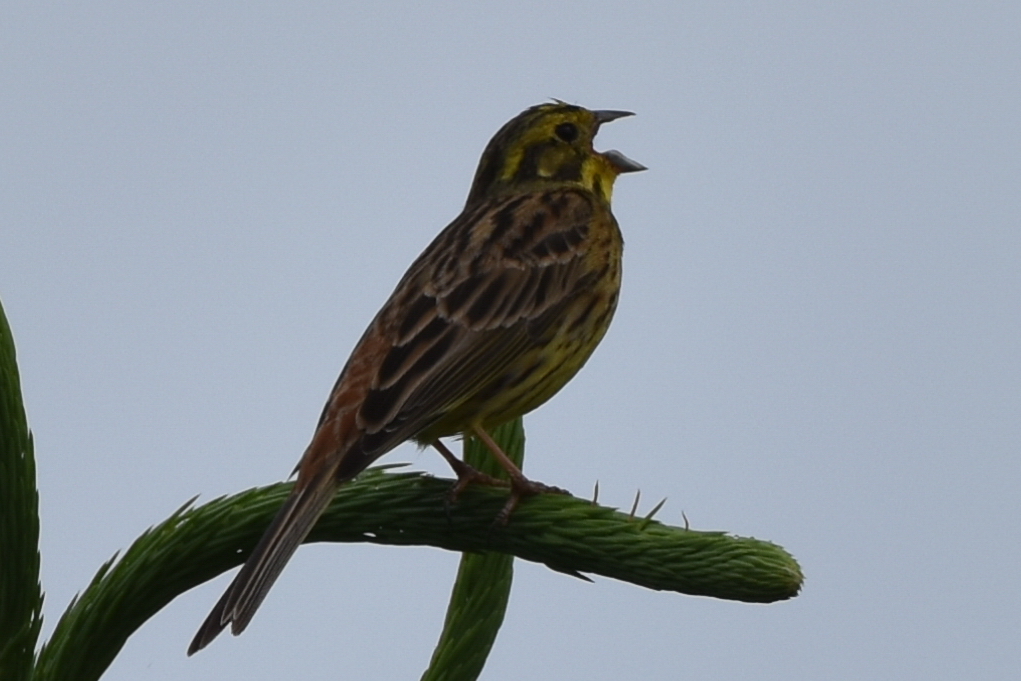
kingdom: Animalia
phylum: Chordata
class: Aves
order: Passeriformes
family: Emberizidae
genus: Emberiza
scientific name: Emberiza citrinella
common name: Yellowhammer
